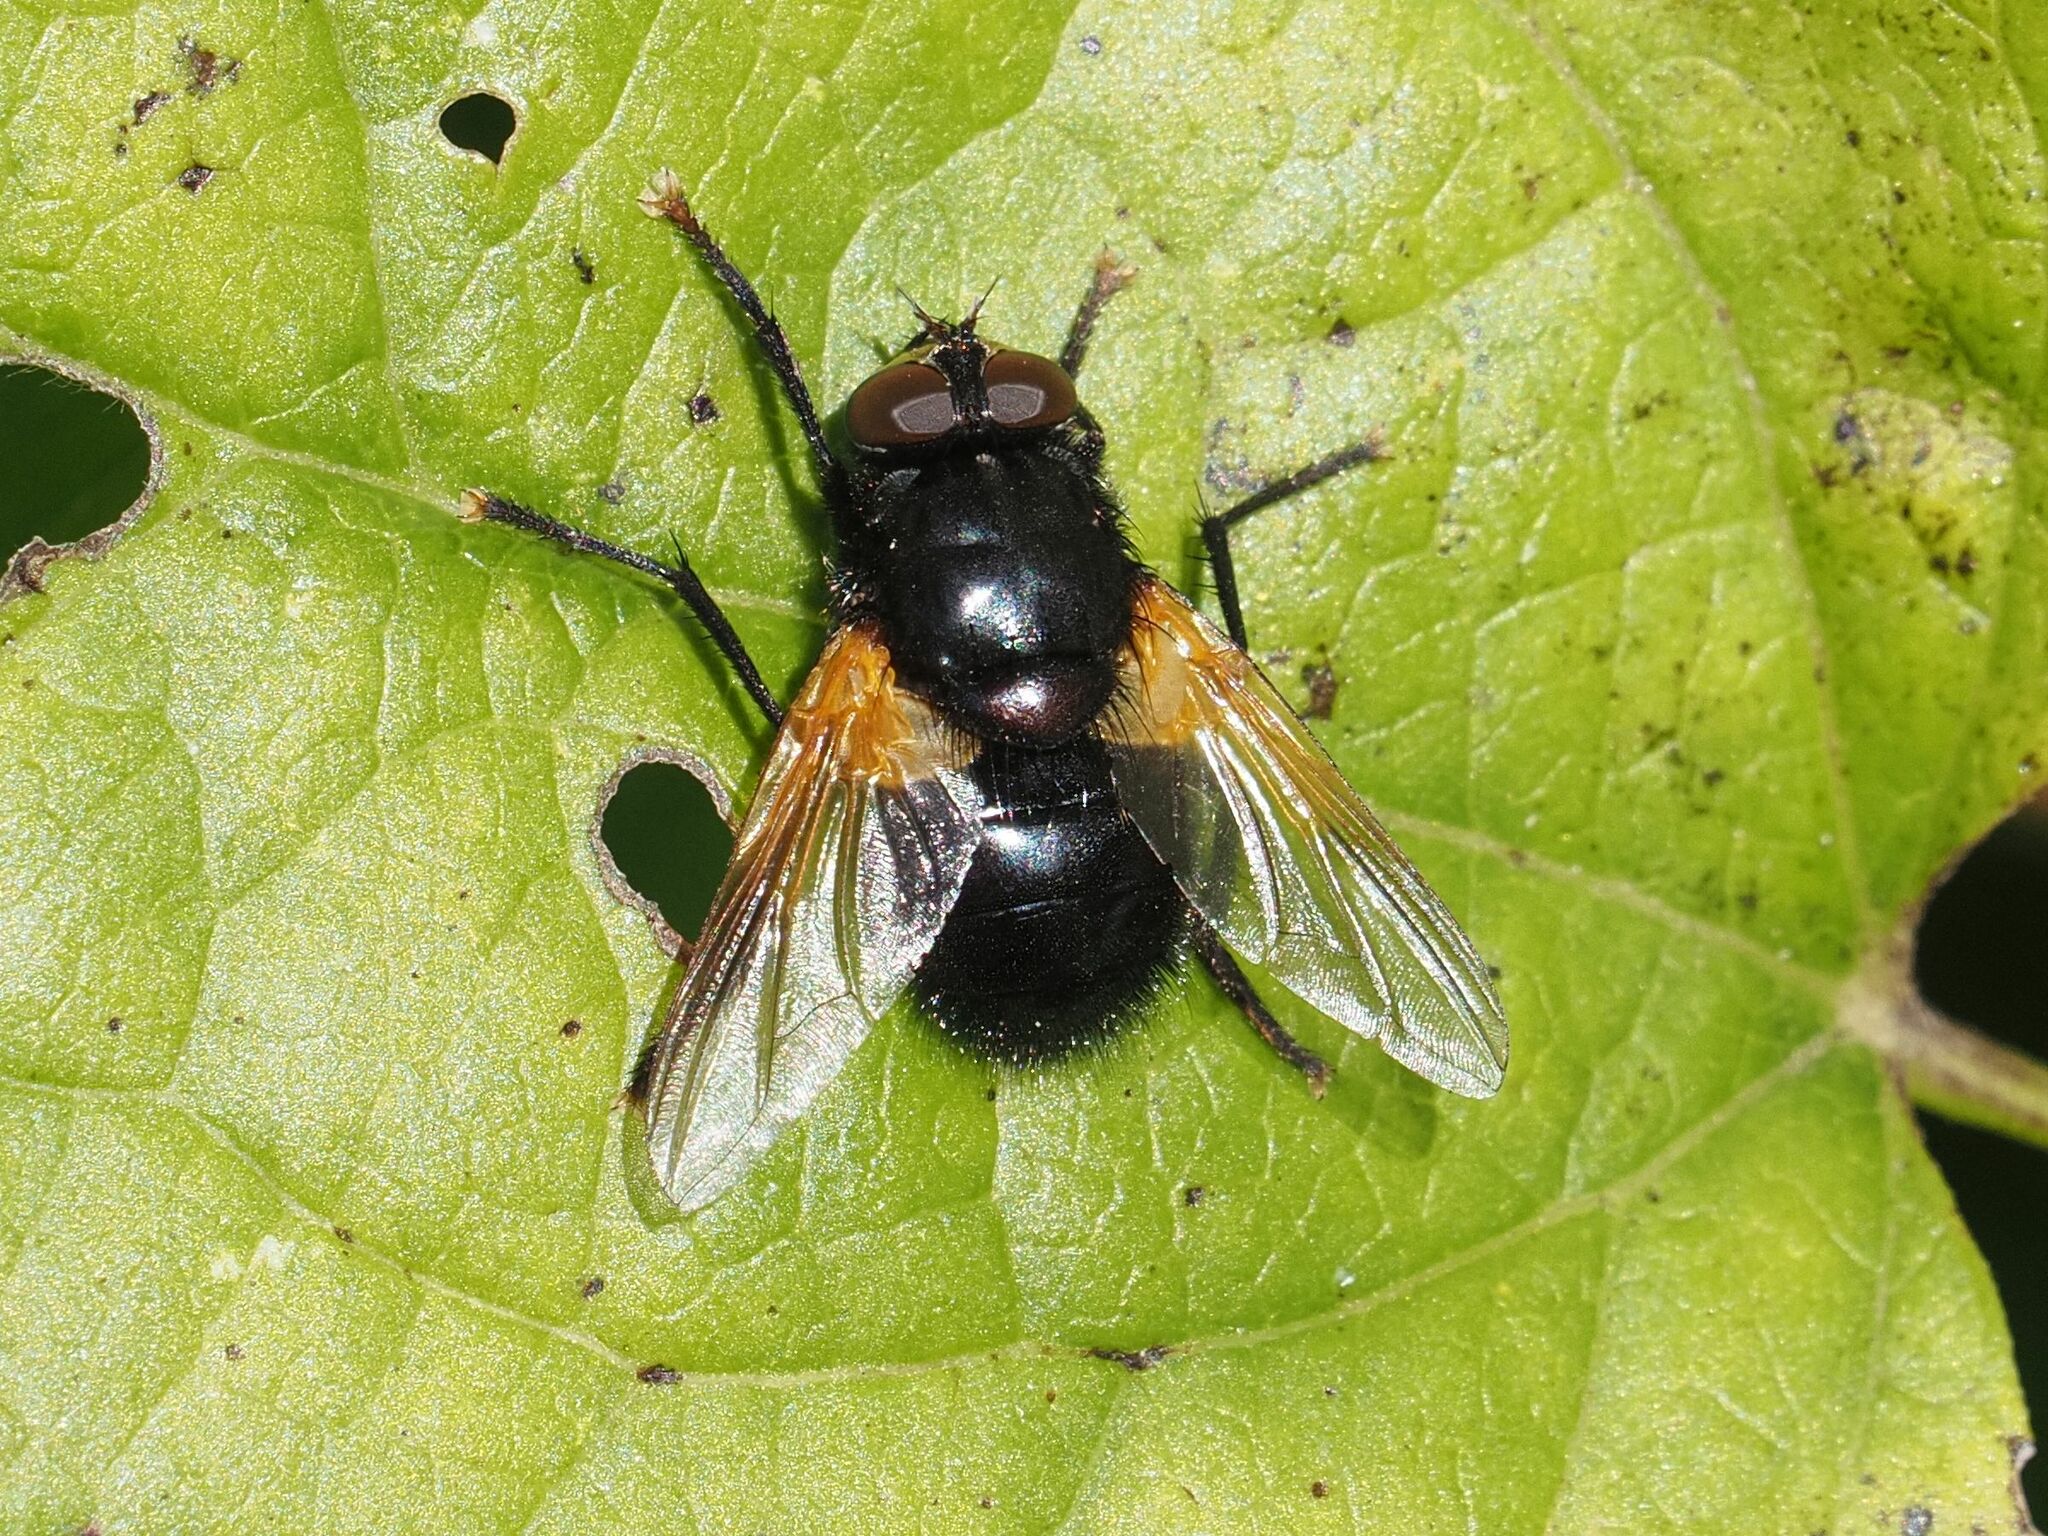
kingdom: Animalia
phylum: Arthropoda
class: Insecta
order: Diptera
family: Muscidae
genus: Mesembrina
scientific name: Mesembrina meridiana
